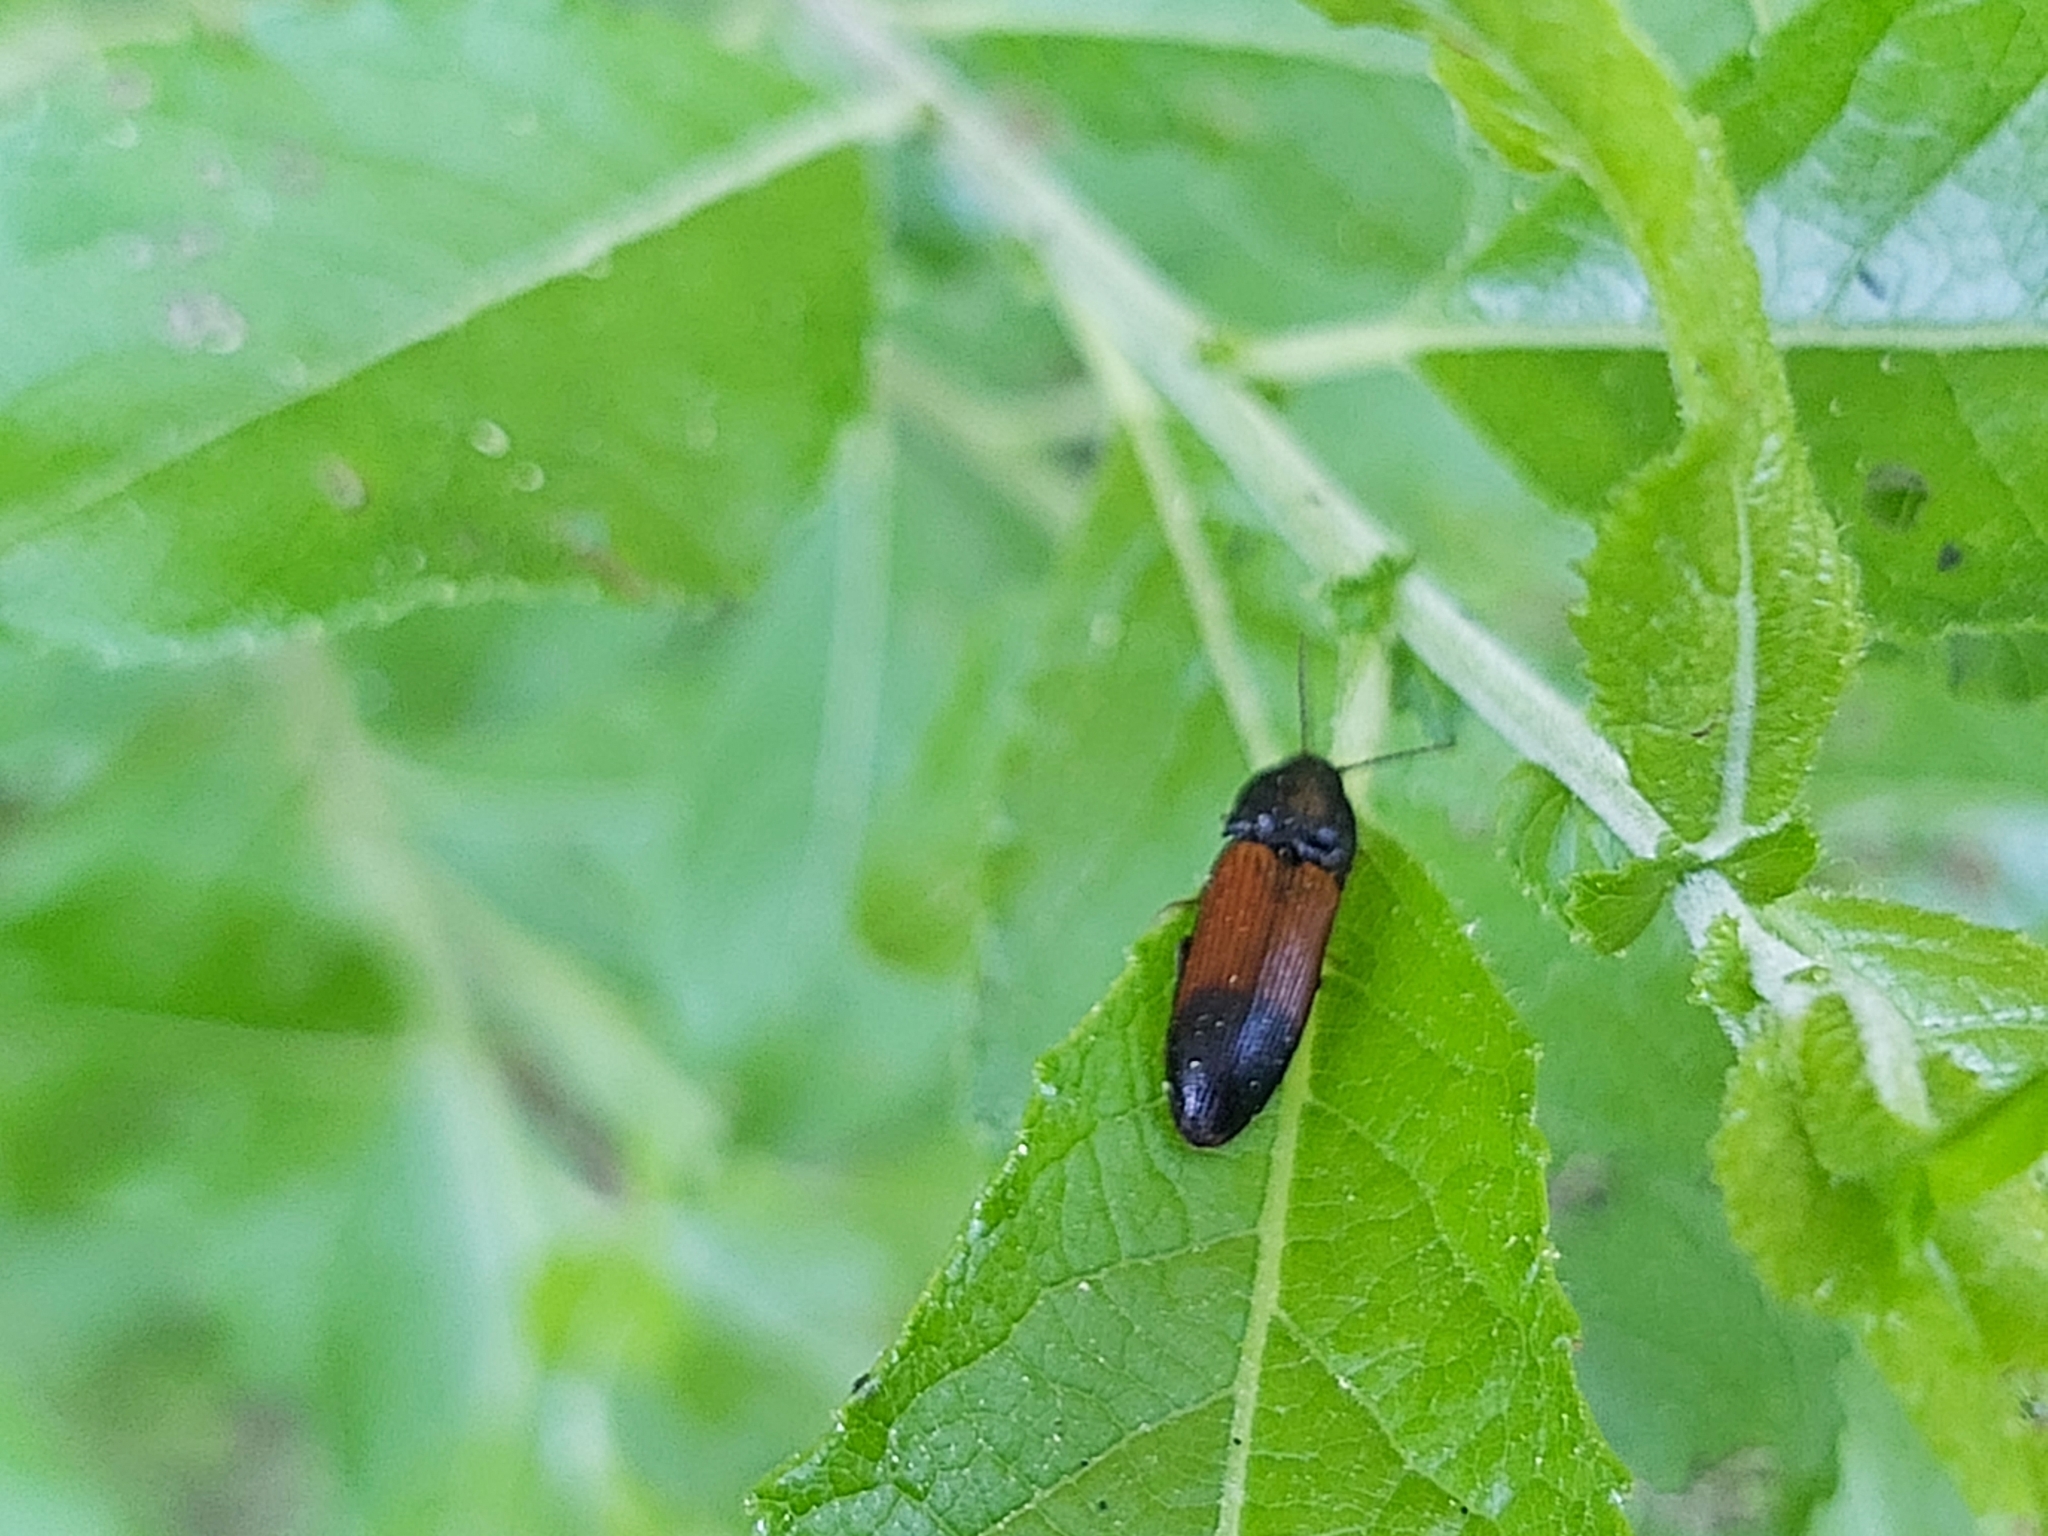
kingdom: Animalia
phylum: Arthropoda
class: Insecta
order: Coleoptera
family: Elateridae
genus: Ampedus
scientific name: Ampedus balteatus
